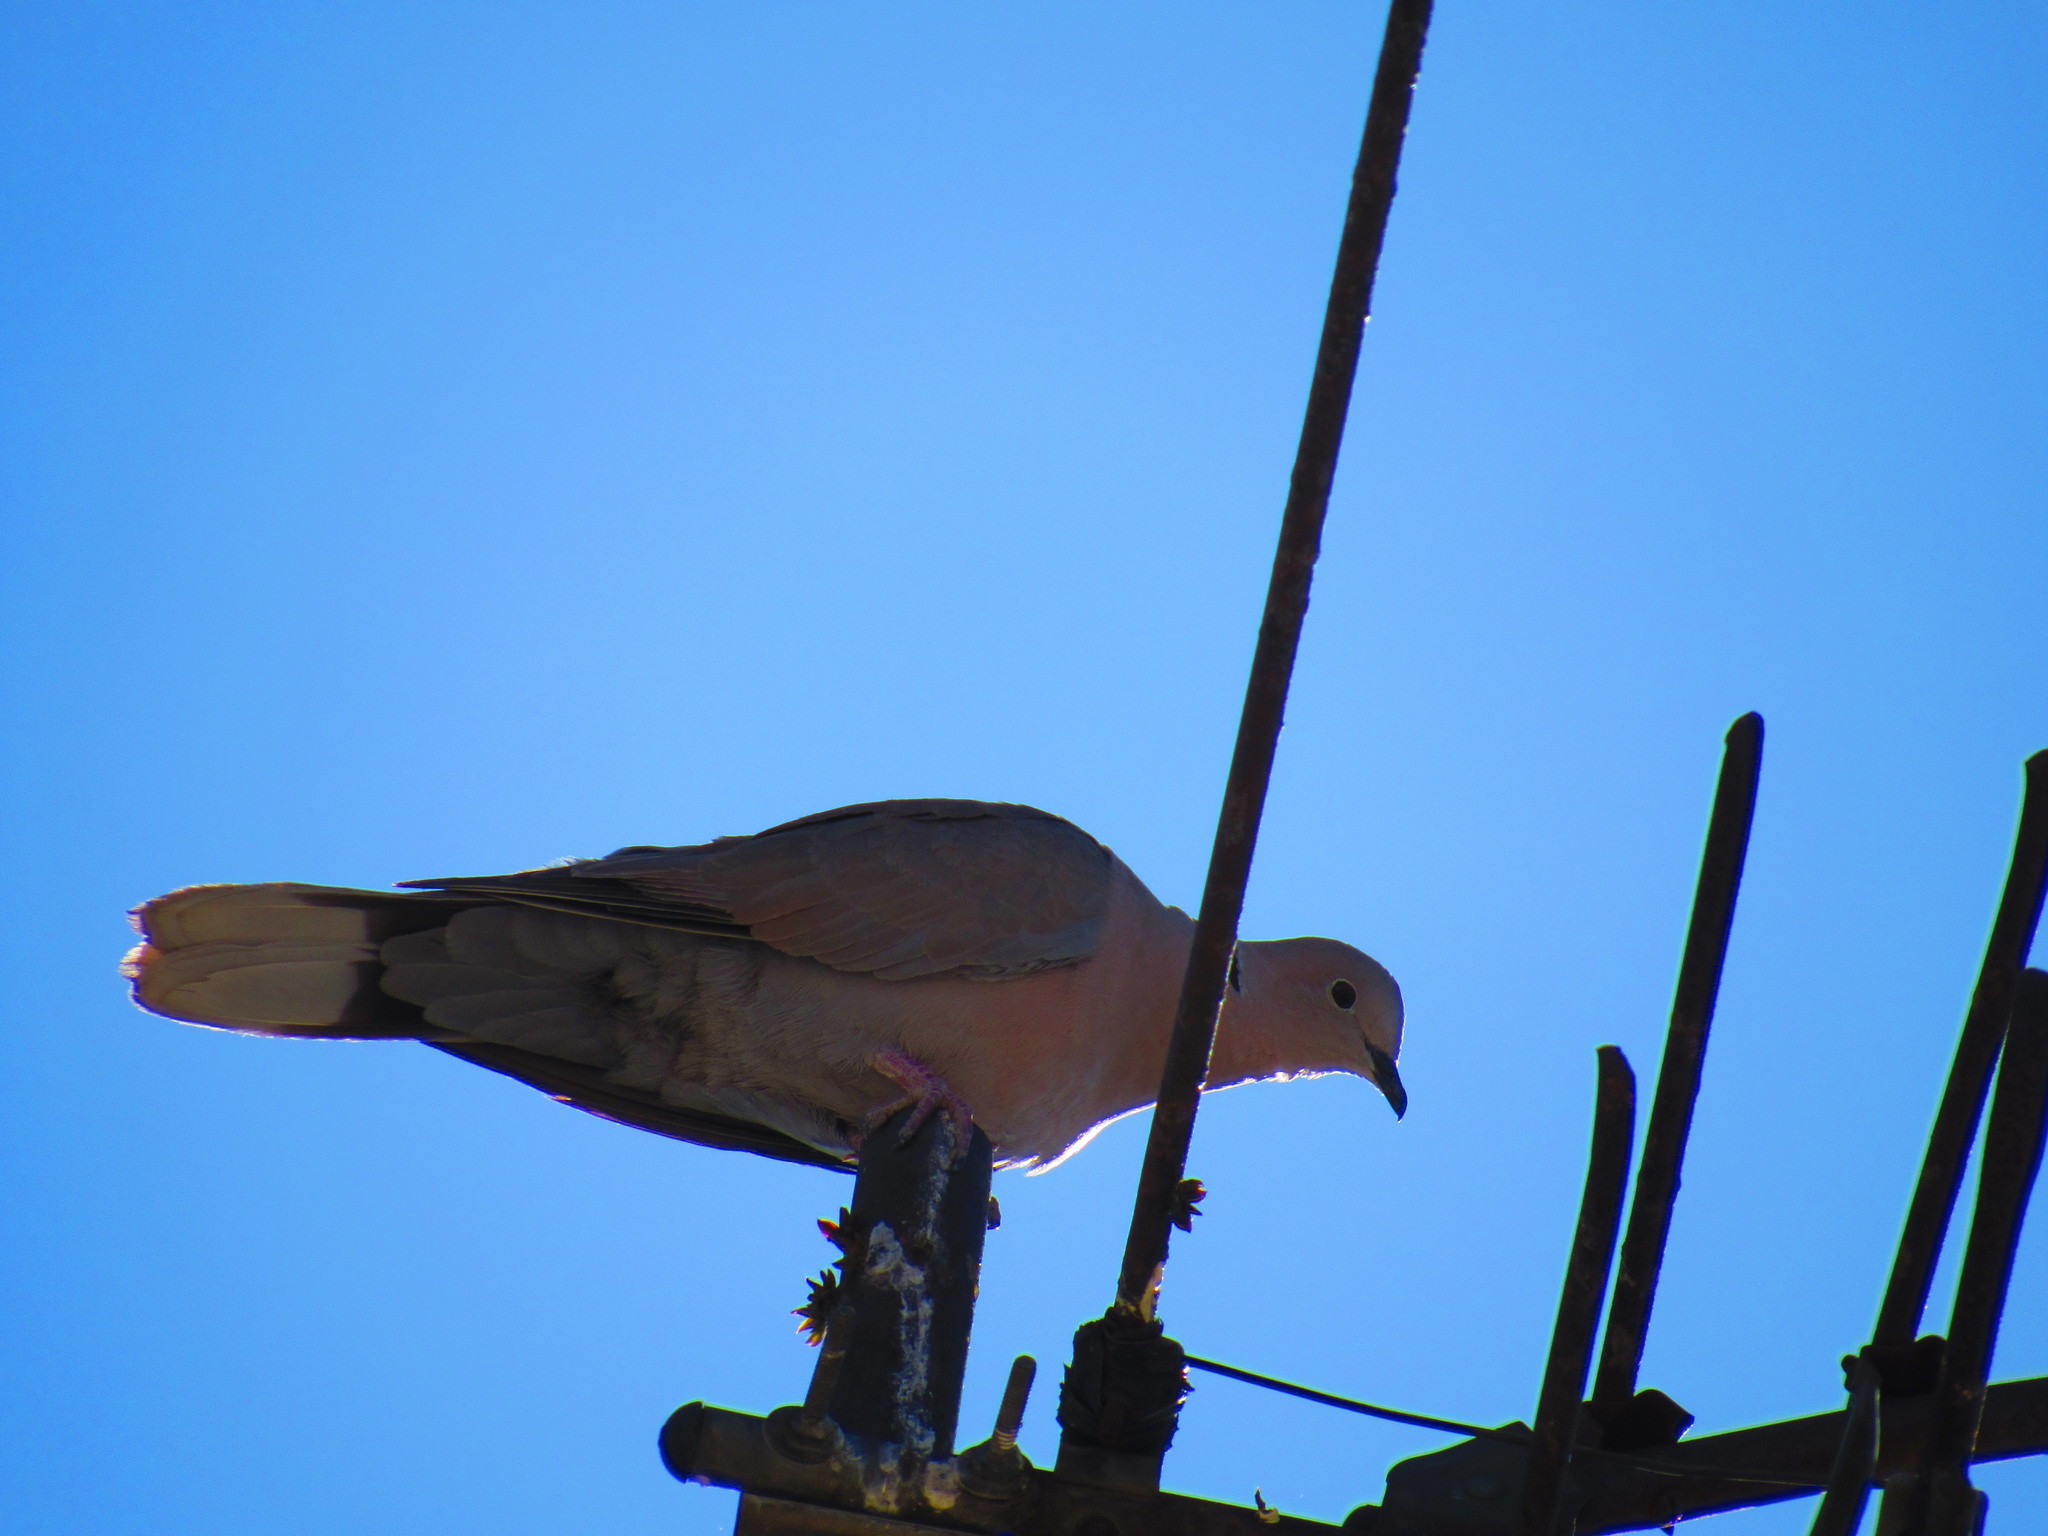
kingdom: Animalia
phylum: Chordata
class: Aves
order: Columbiformes
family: Columbidae
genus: Streptopelia
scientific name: Streptopelia decaocto
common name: Eurasian collared dove
